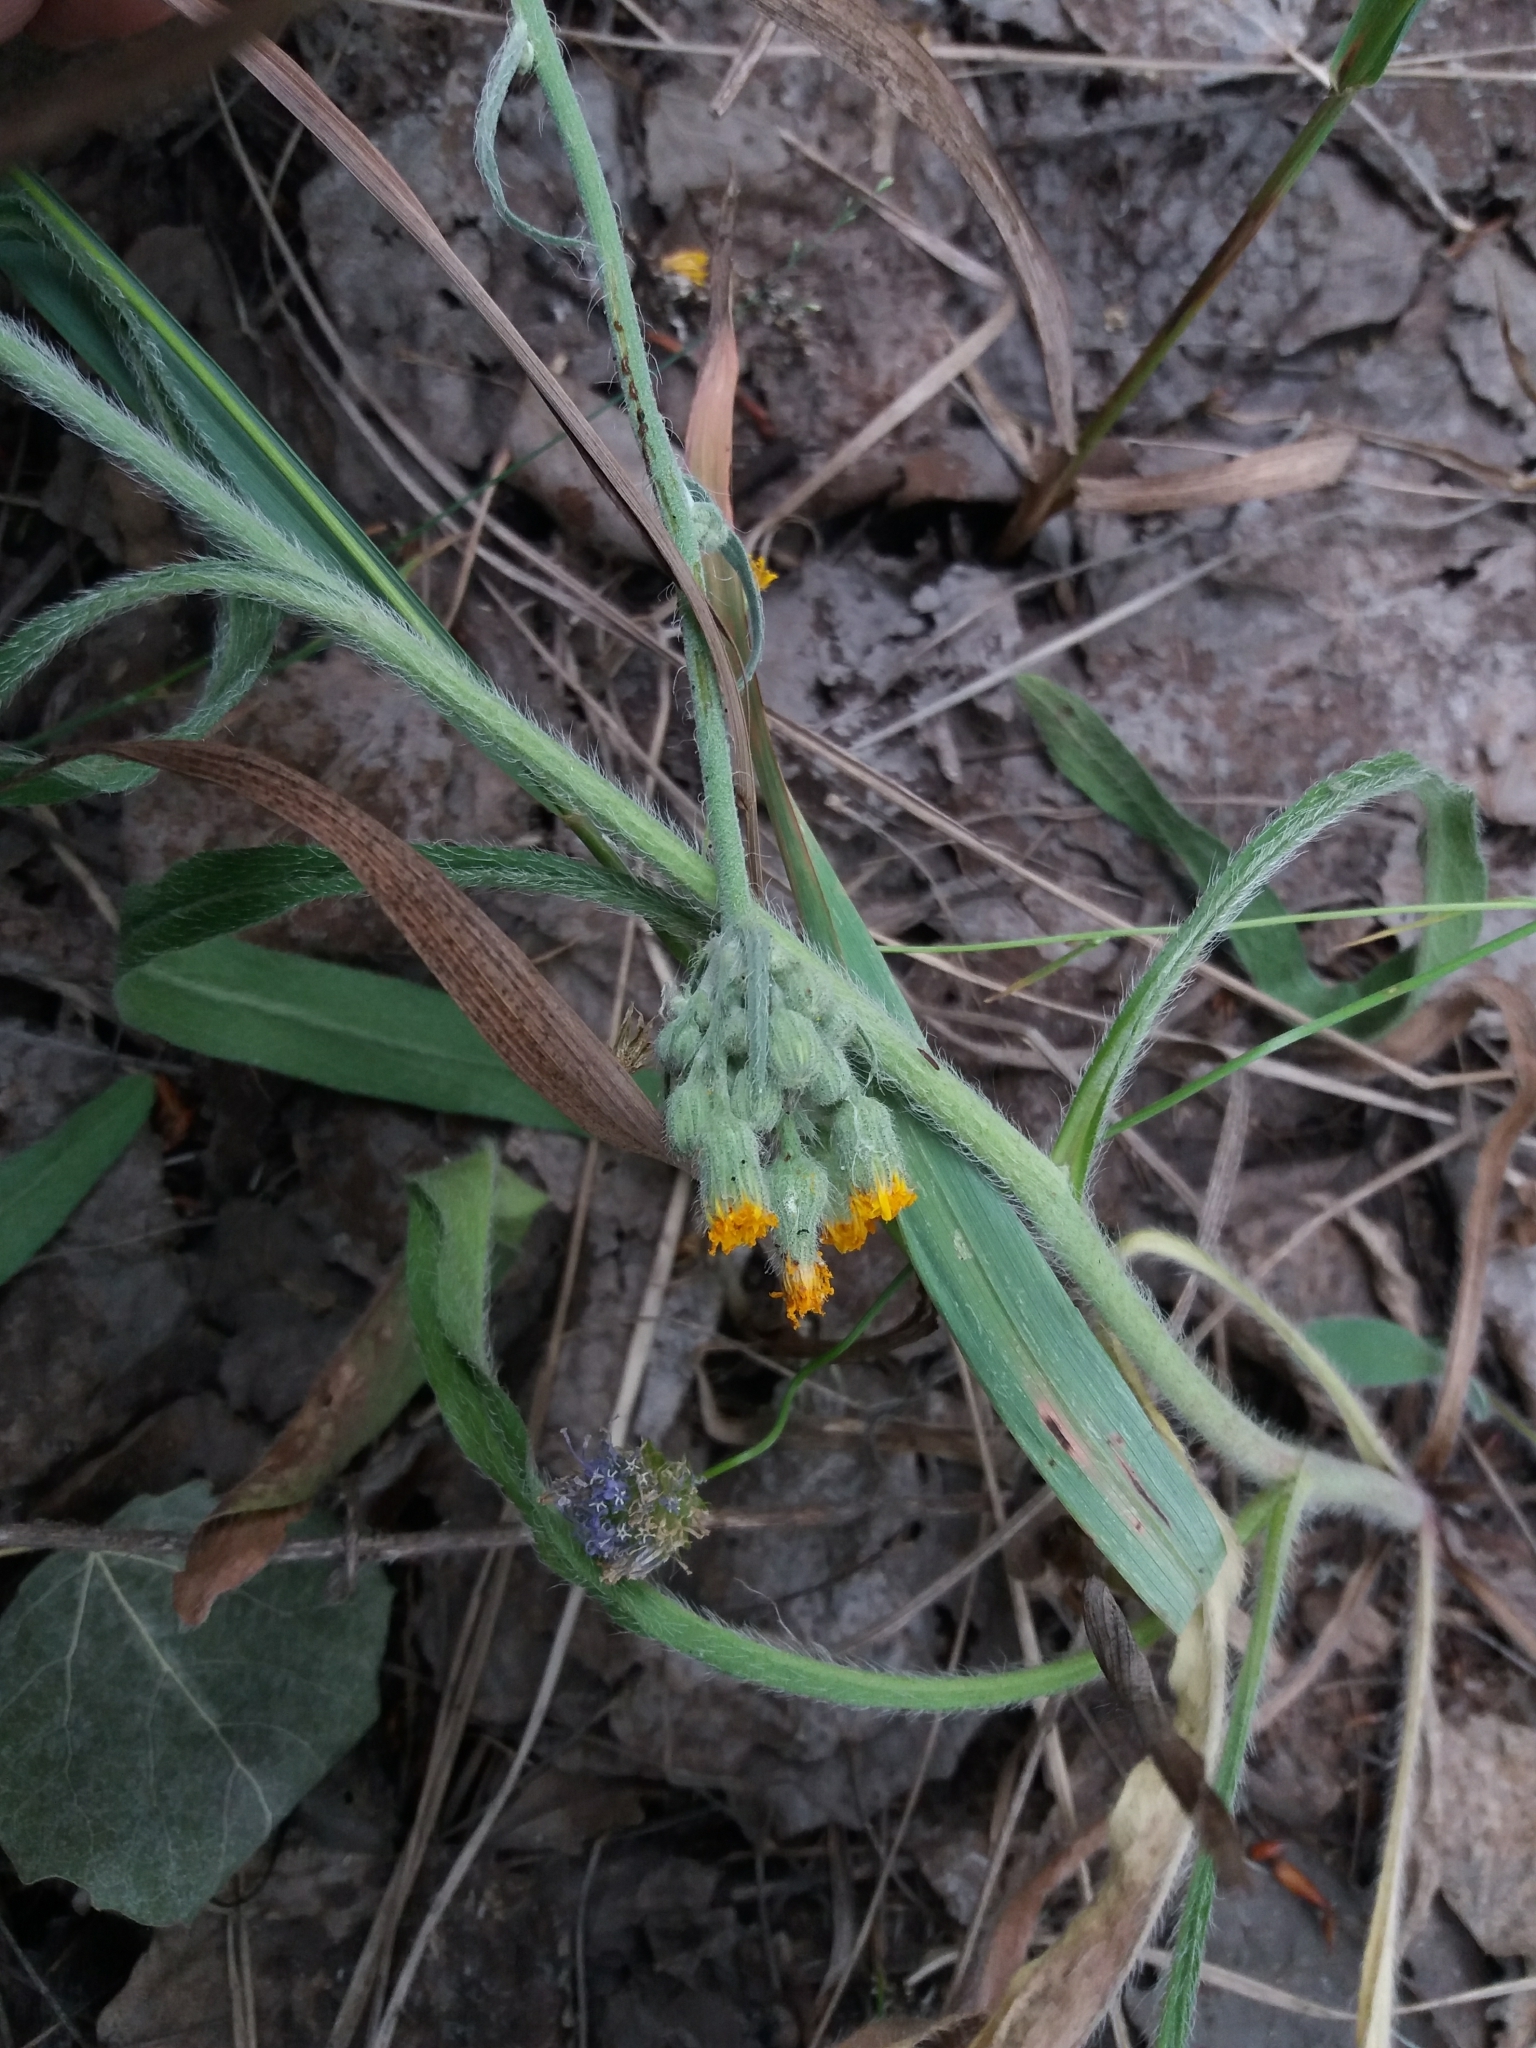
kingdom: Plantae
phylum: Tracheophyta
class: Magnoliopsida
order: Asterales
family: Asteraceae
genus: Pilosella
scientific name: Pilosella echioides
